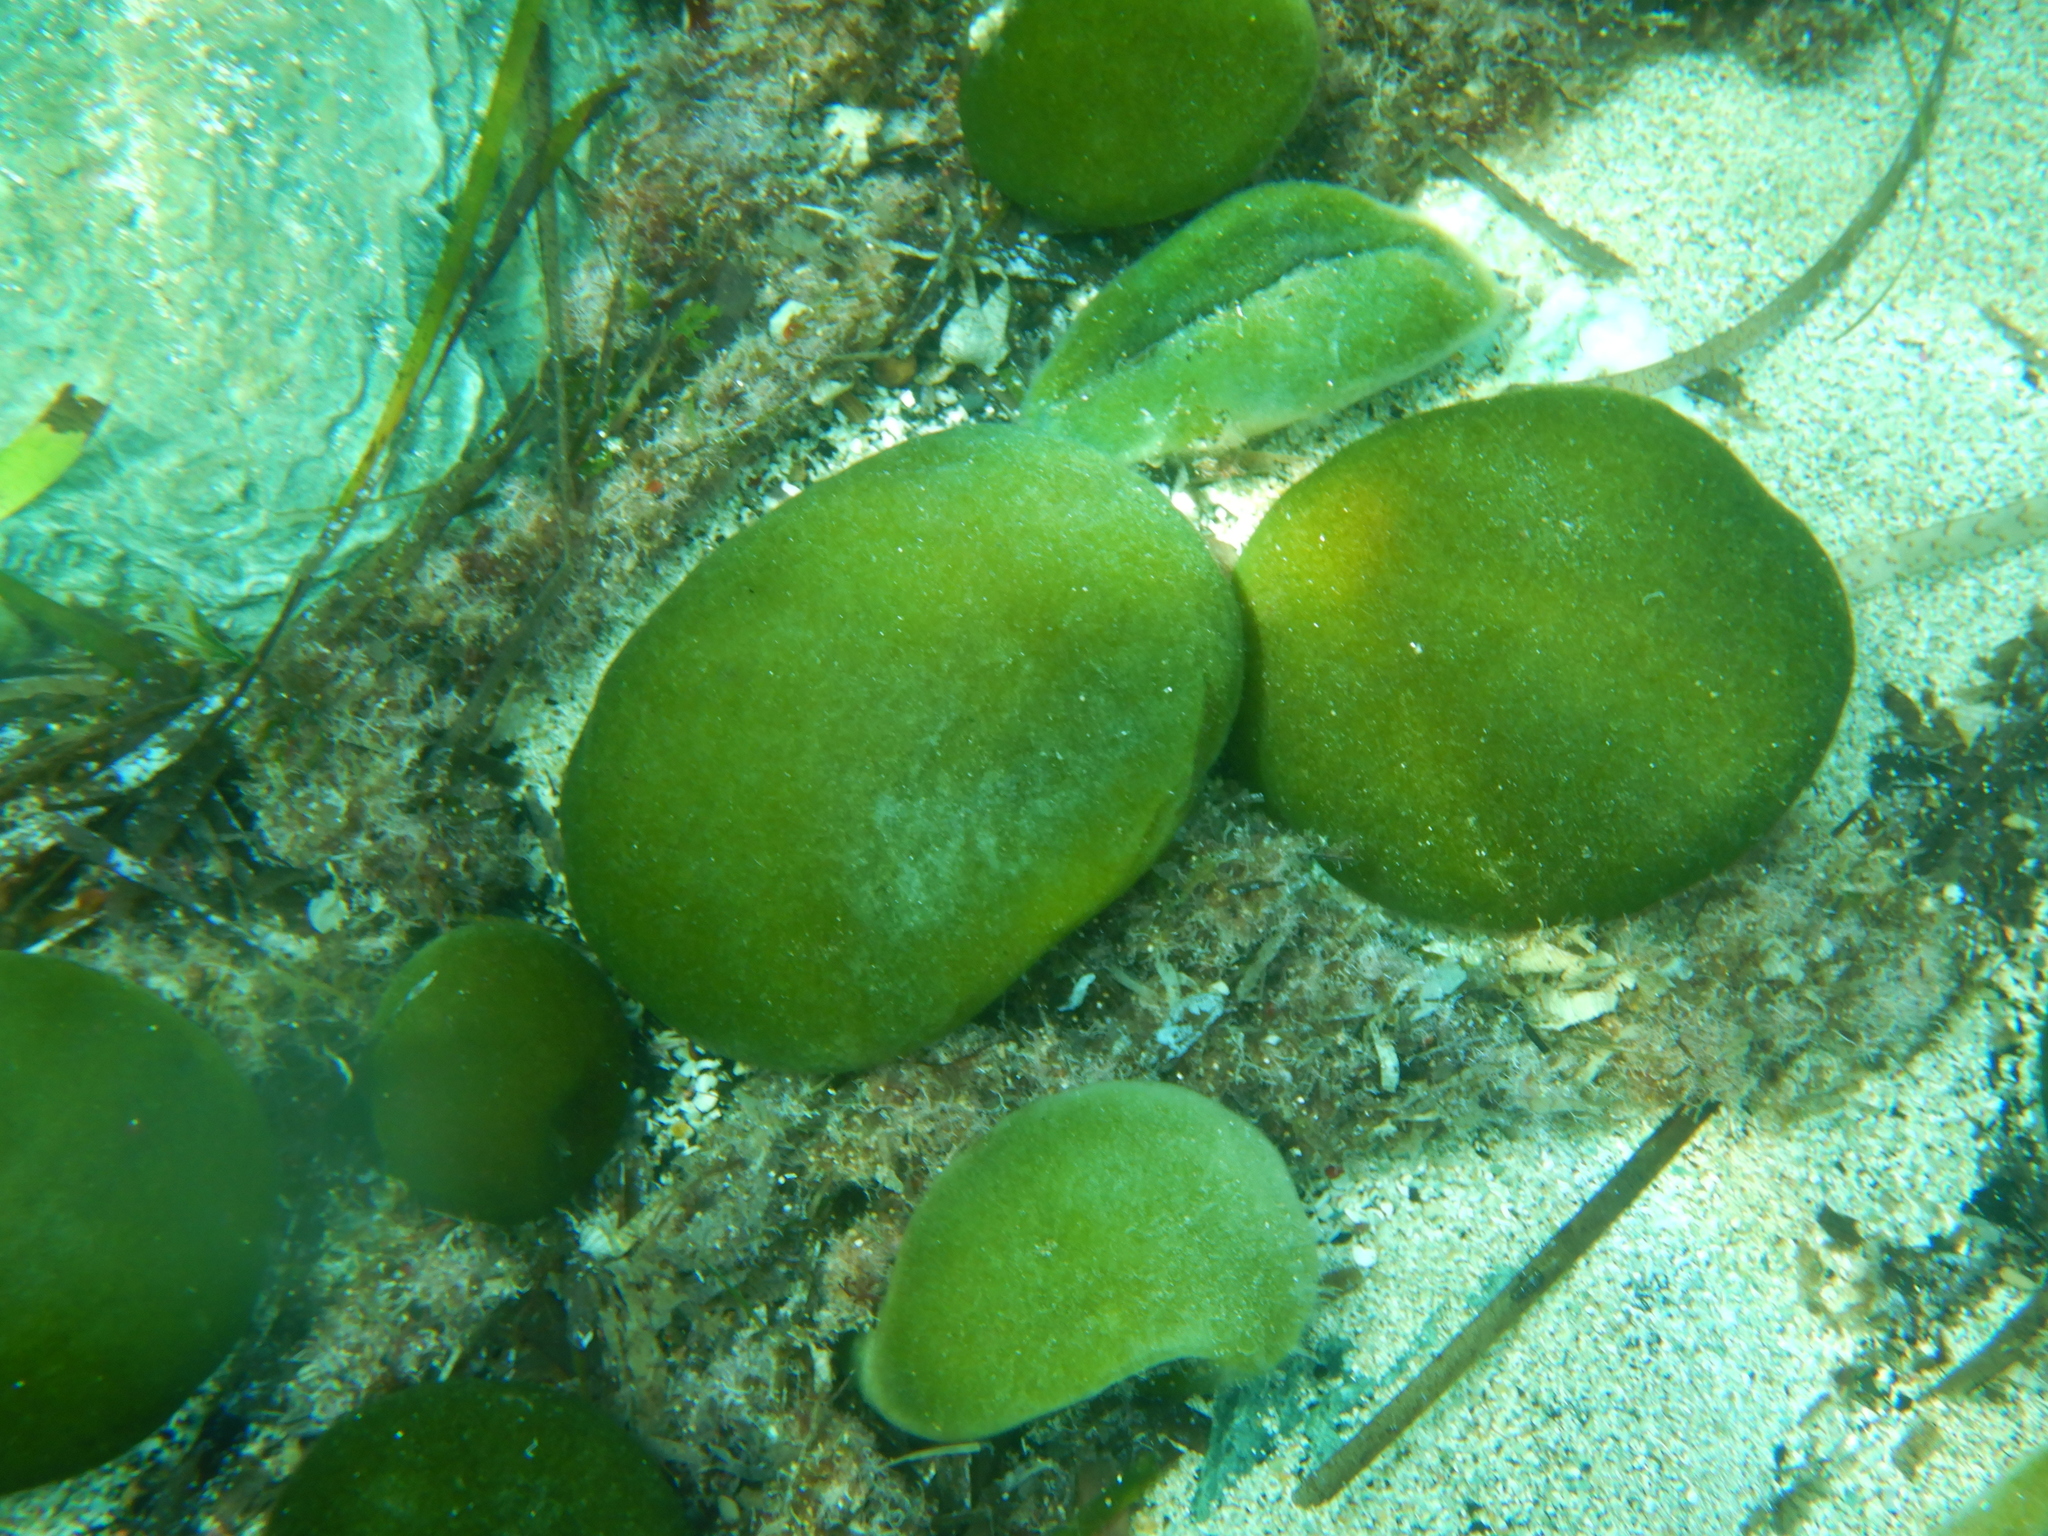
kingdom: Plantae
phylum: Chlorophyta
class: Ulvophyceae
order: Bryopsidales
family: Codiaceae
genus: Codium
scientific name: Codium bursa
